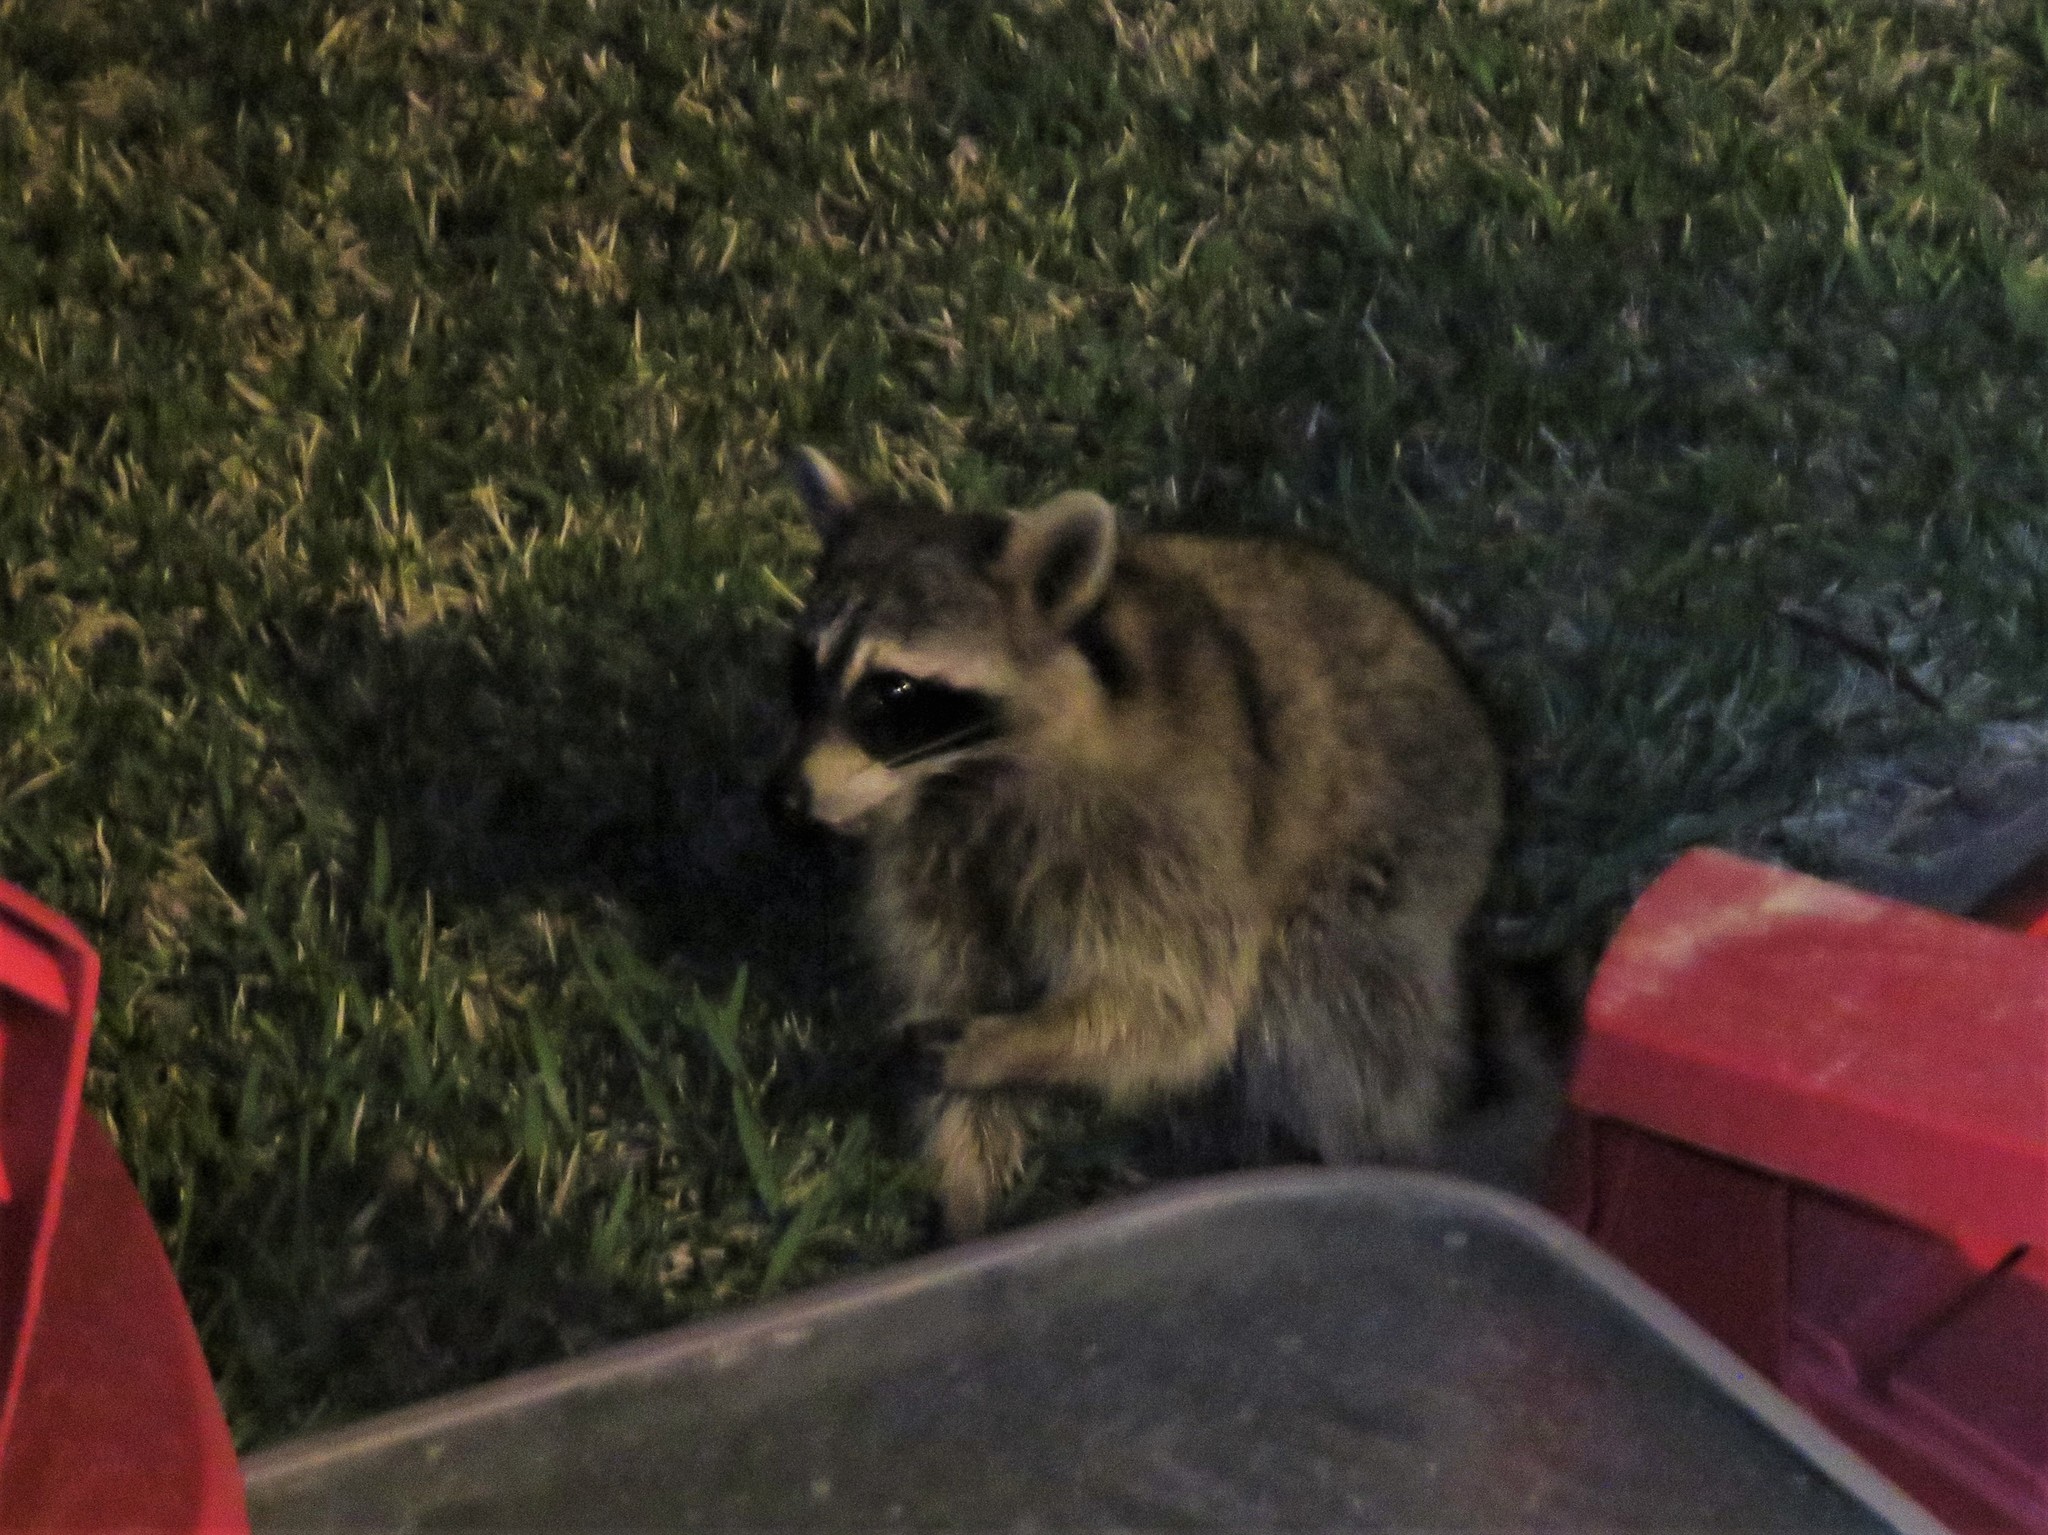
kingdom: Animalia
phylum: Chordata
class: Mammalia
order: Carnivora
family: Procyonidae
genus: Procyon
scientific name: Procyon lotor
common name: Raccoon
